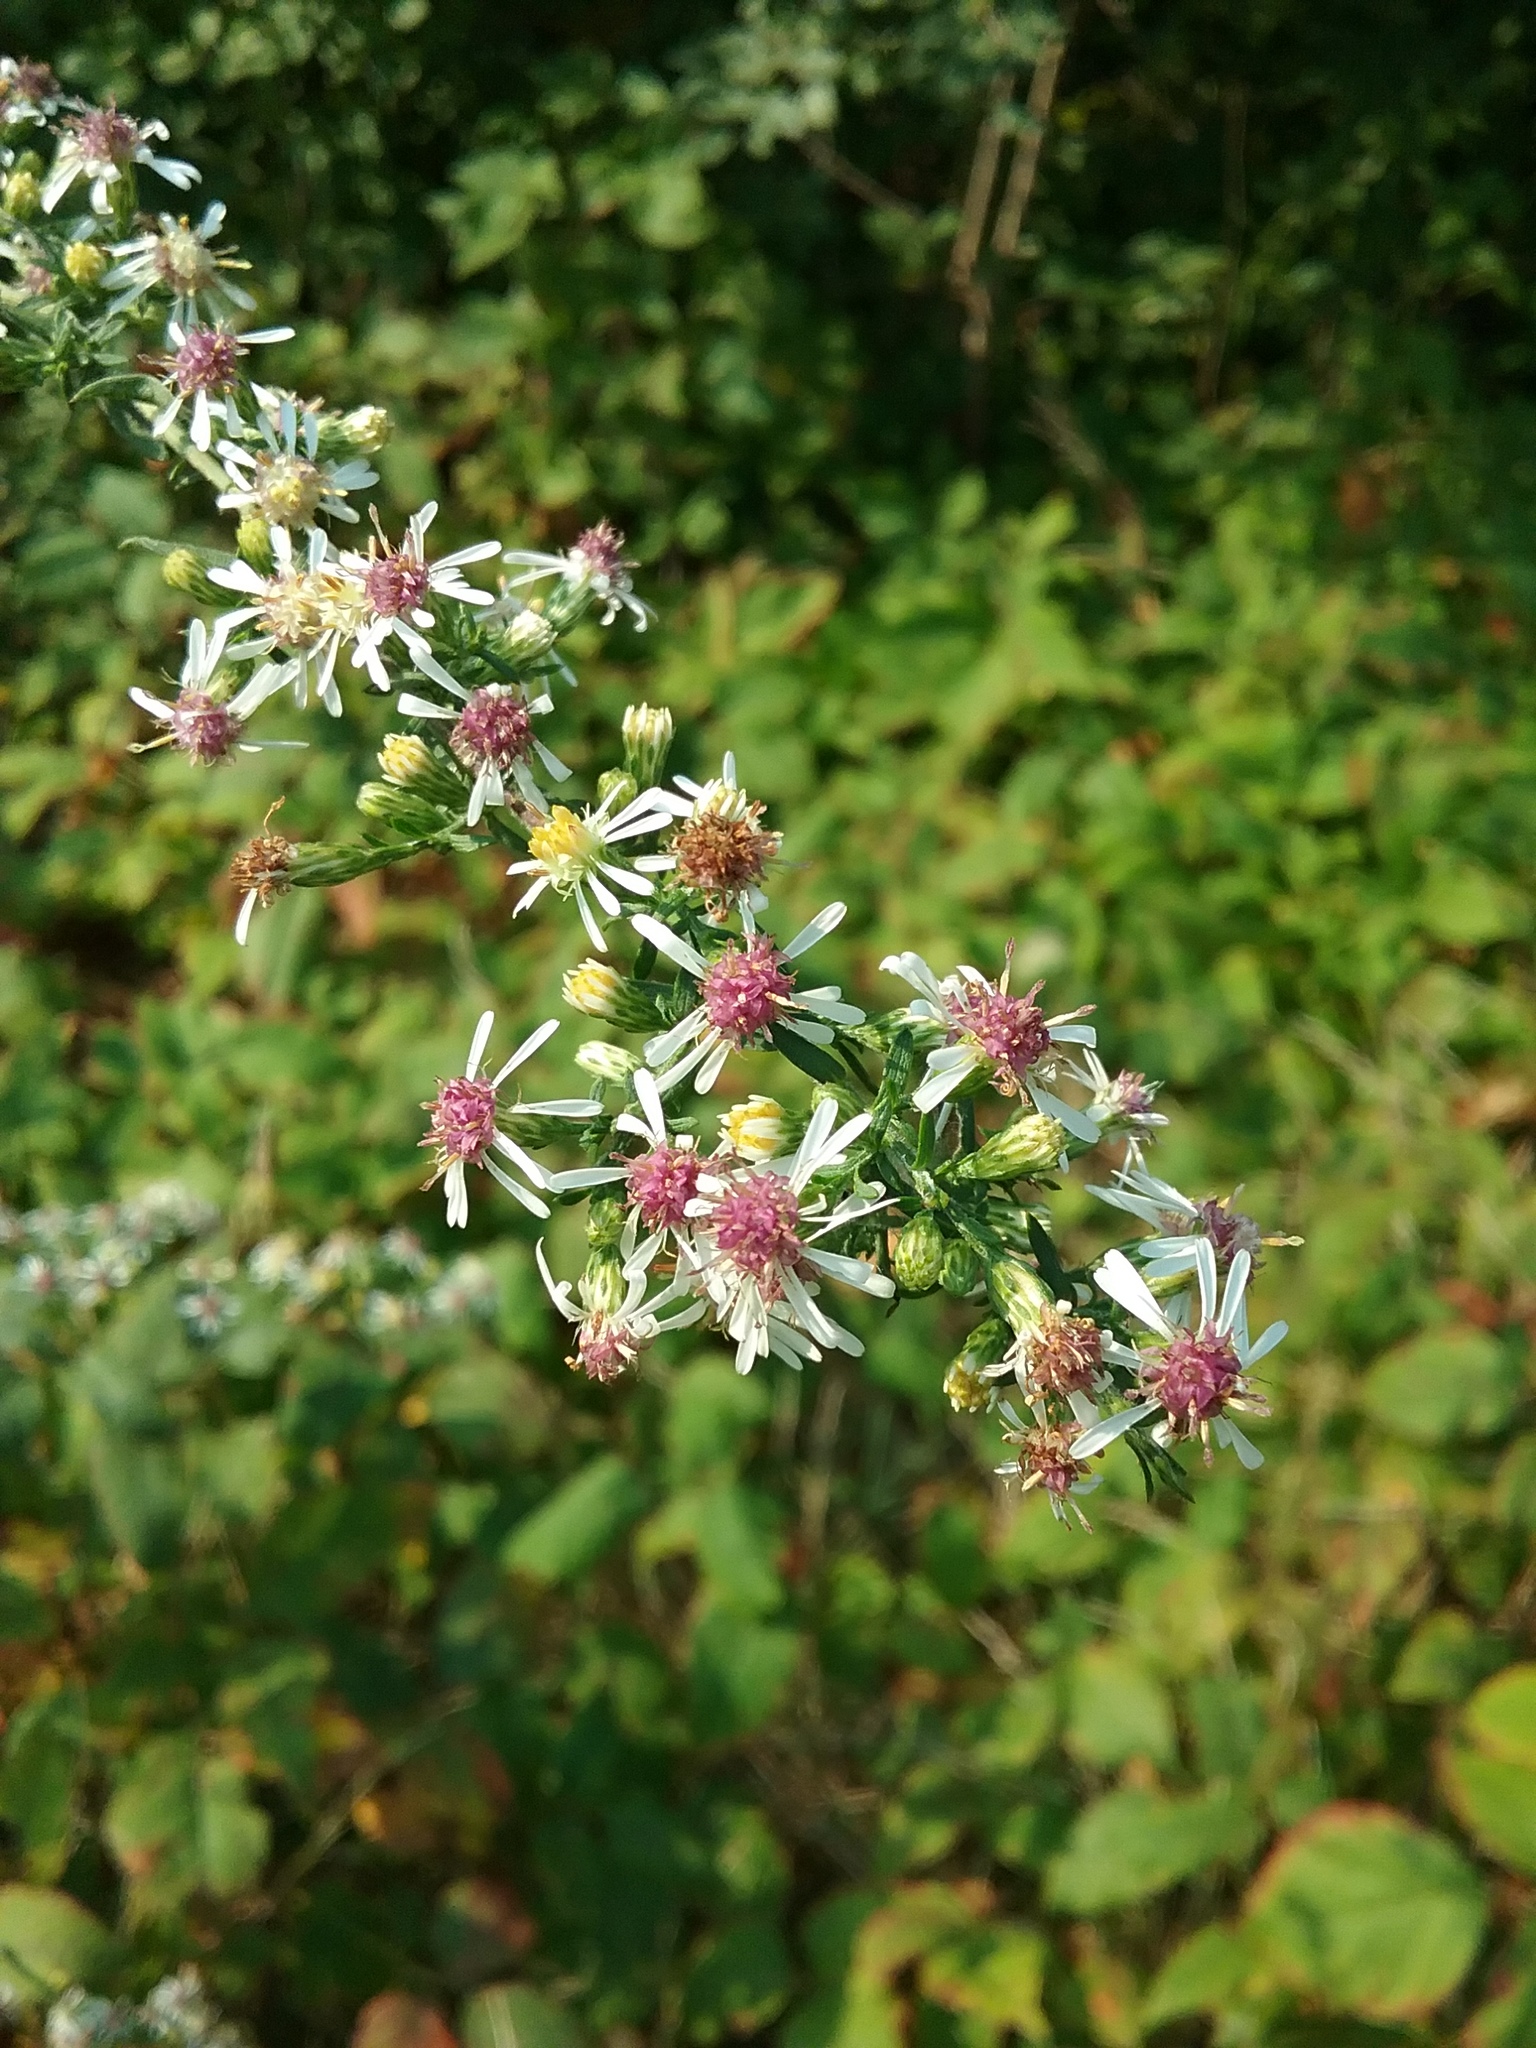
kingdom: Plantae
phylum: Tracheophyta
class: Magnoliopsida
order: Asterales
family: Asteraceae
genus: Symphyotrichum
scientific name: Symphyotrichum lateriflorum
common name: Calico aster
